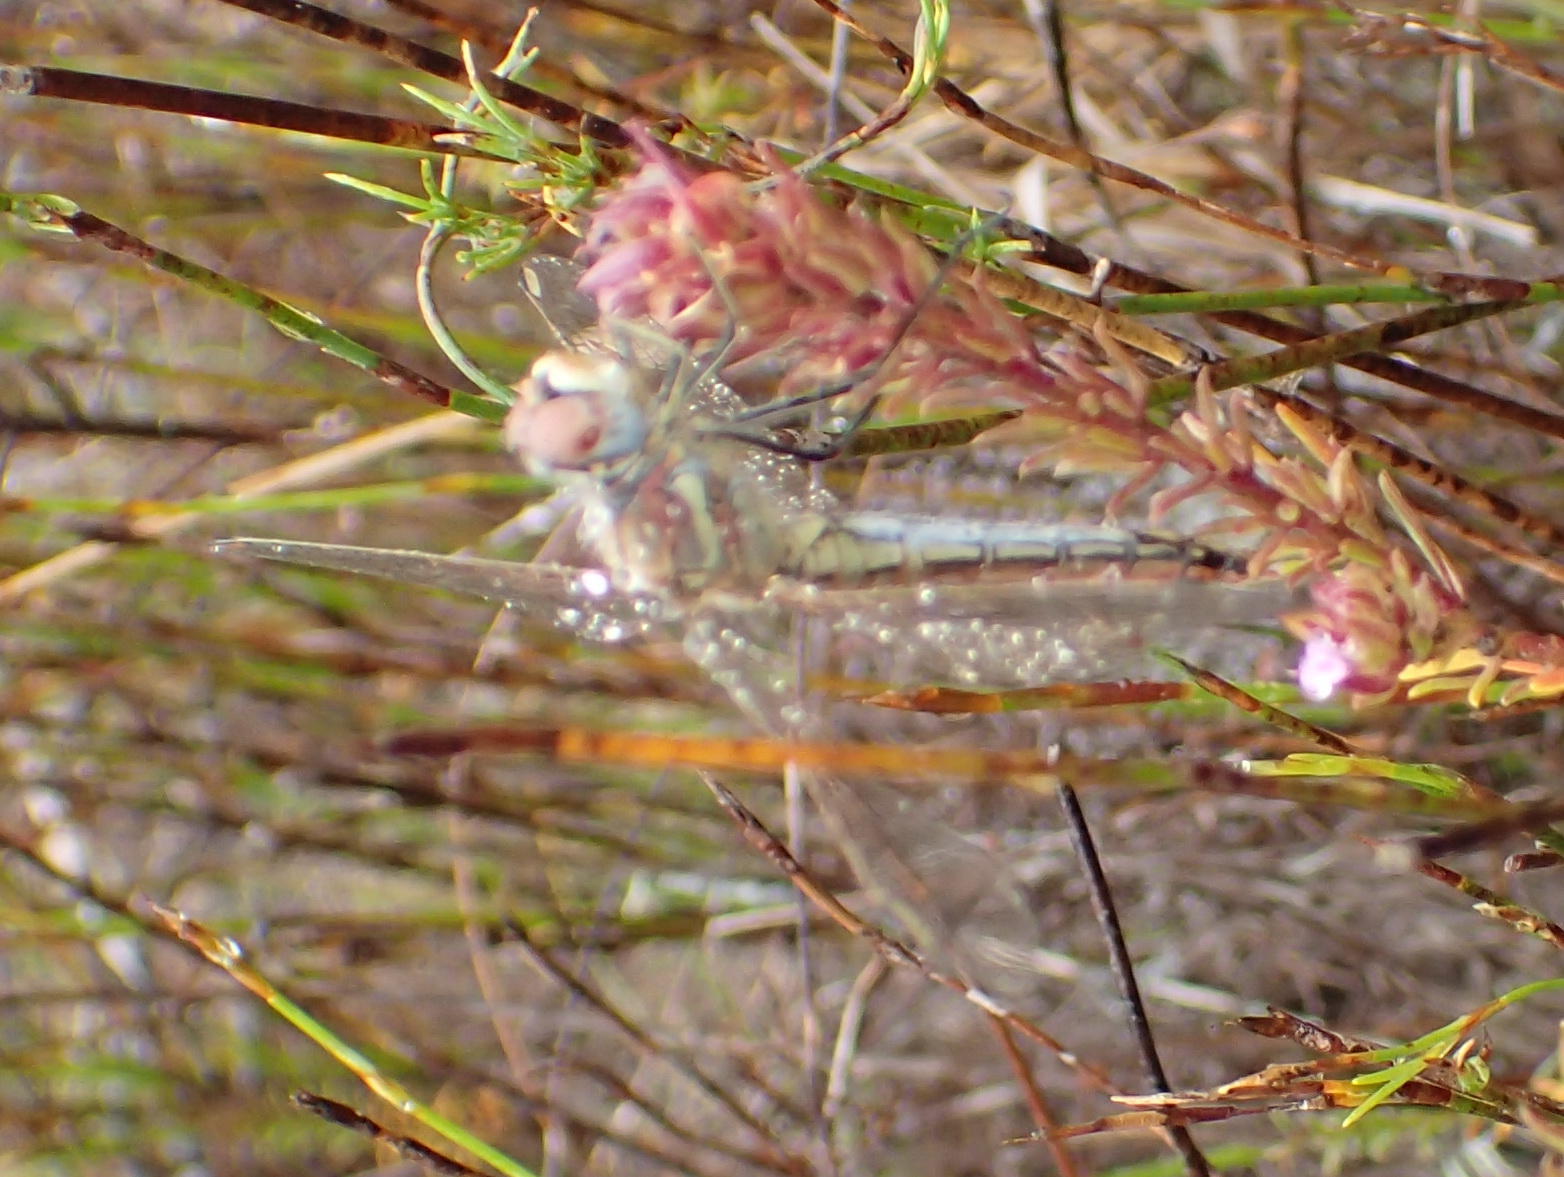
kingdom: Animalia
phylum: Arthropoda
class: Insecta
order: Odonata
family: Libellulidae
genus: Sympetrum
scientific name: Sympetrum fonscolombii
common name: Red-veined darter
